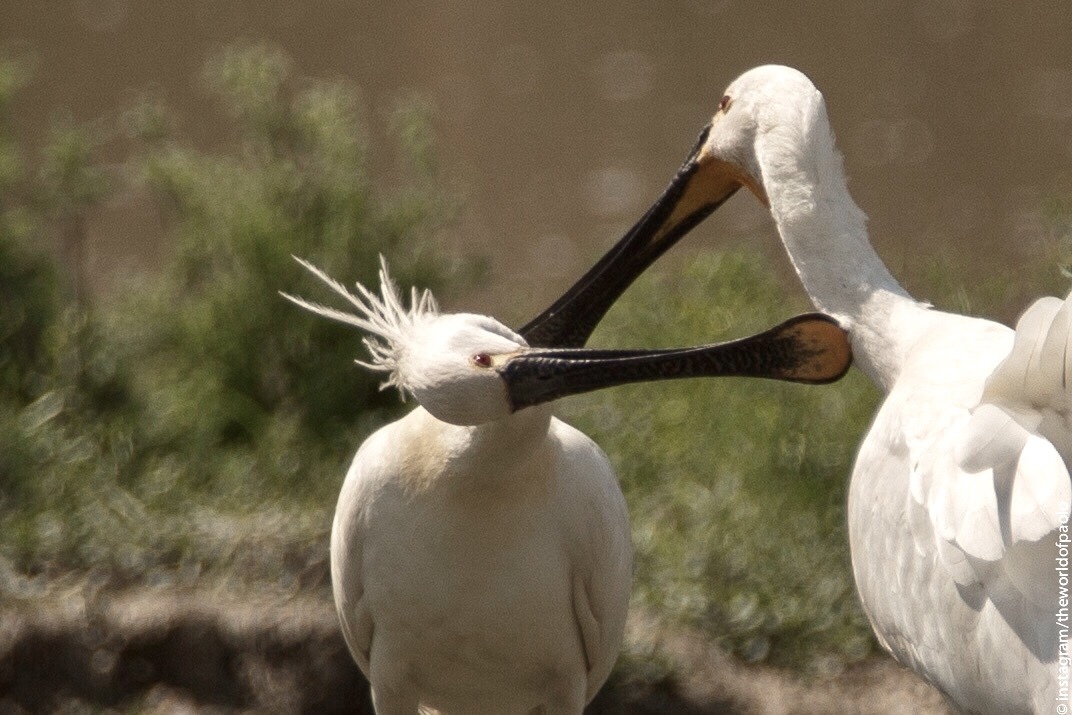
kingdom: Animalia
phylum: Chordata
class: Aves
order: Pelecaniformes
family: Threskiornithidae
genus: Platalea
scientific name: Platalea leucorodia
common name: Eurasian spoonbill
